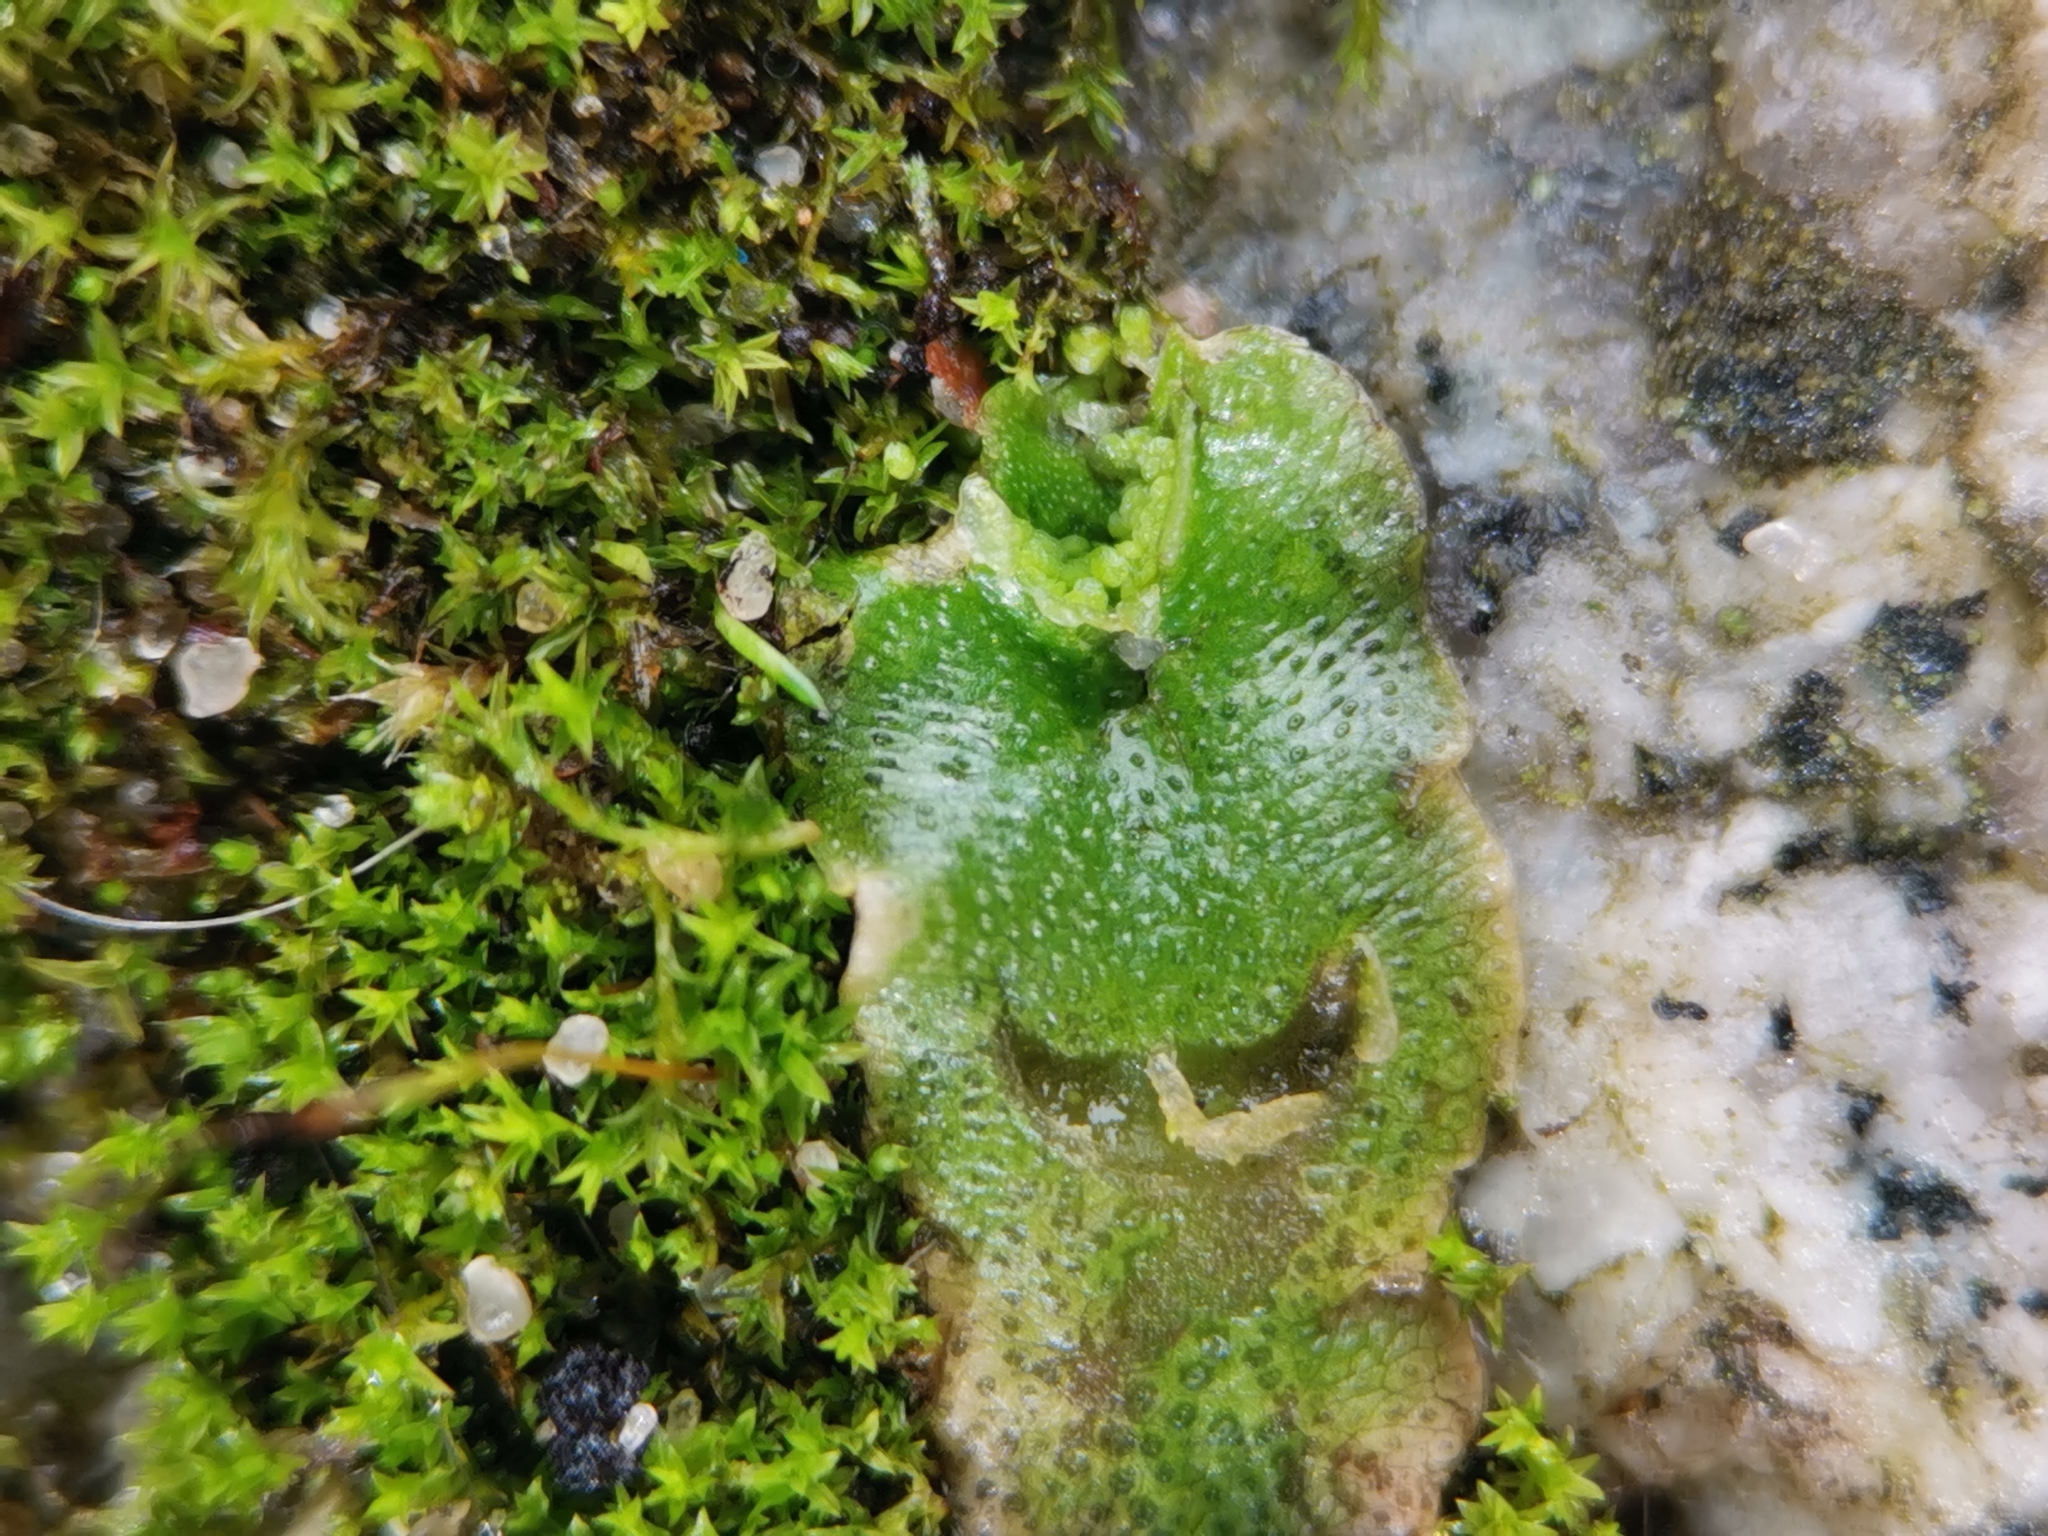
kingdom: Plantae
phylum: Marchantiophyta
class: Marchantiopsida
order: Lunulariales
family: Lunulariaceae
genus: Lunularia
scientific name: Lunularia cruciata
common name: Crescent-cup liverwort
